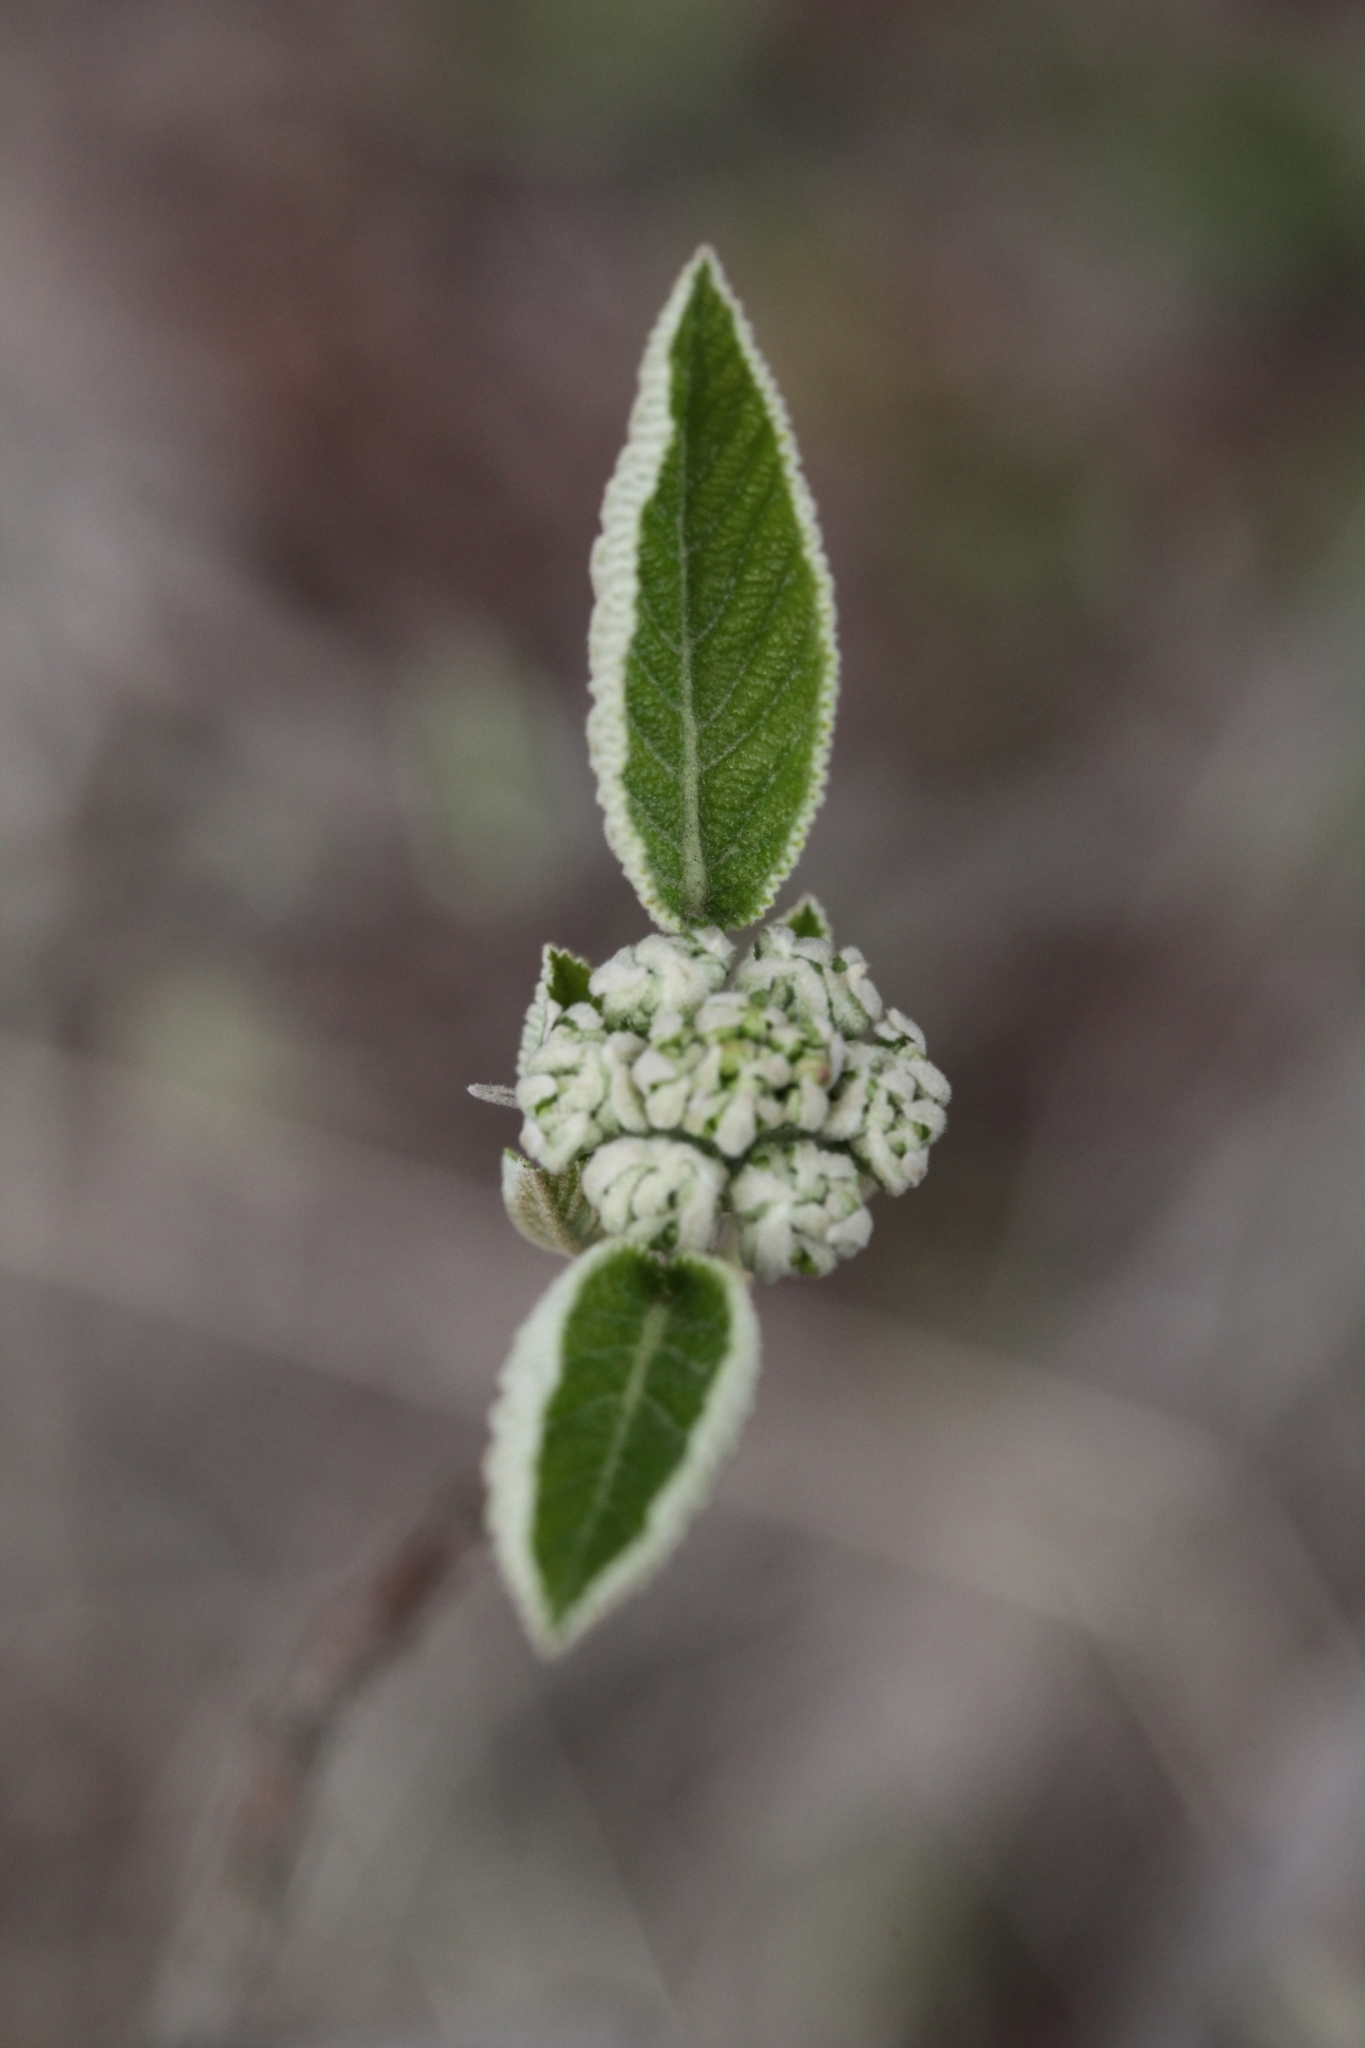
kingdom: Plantae
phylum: Tracheophyta
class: Magnoliopsida
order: Dipsacales
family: Viburnaceae
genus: Viburnum
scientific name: Viburnum lantana
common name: Wayfaring tree
